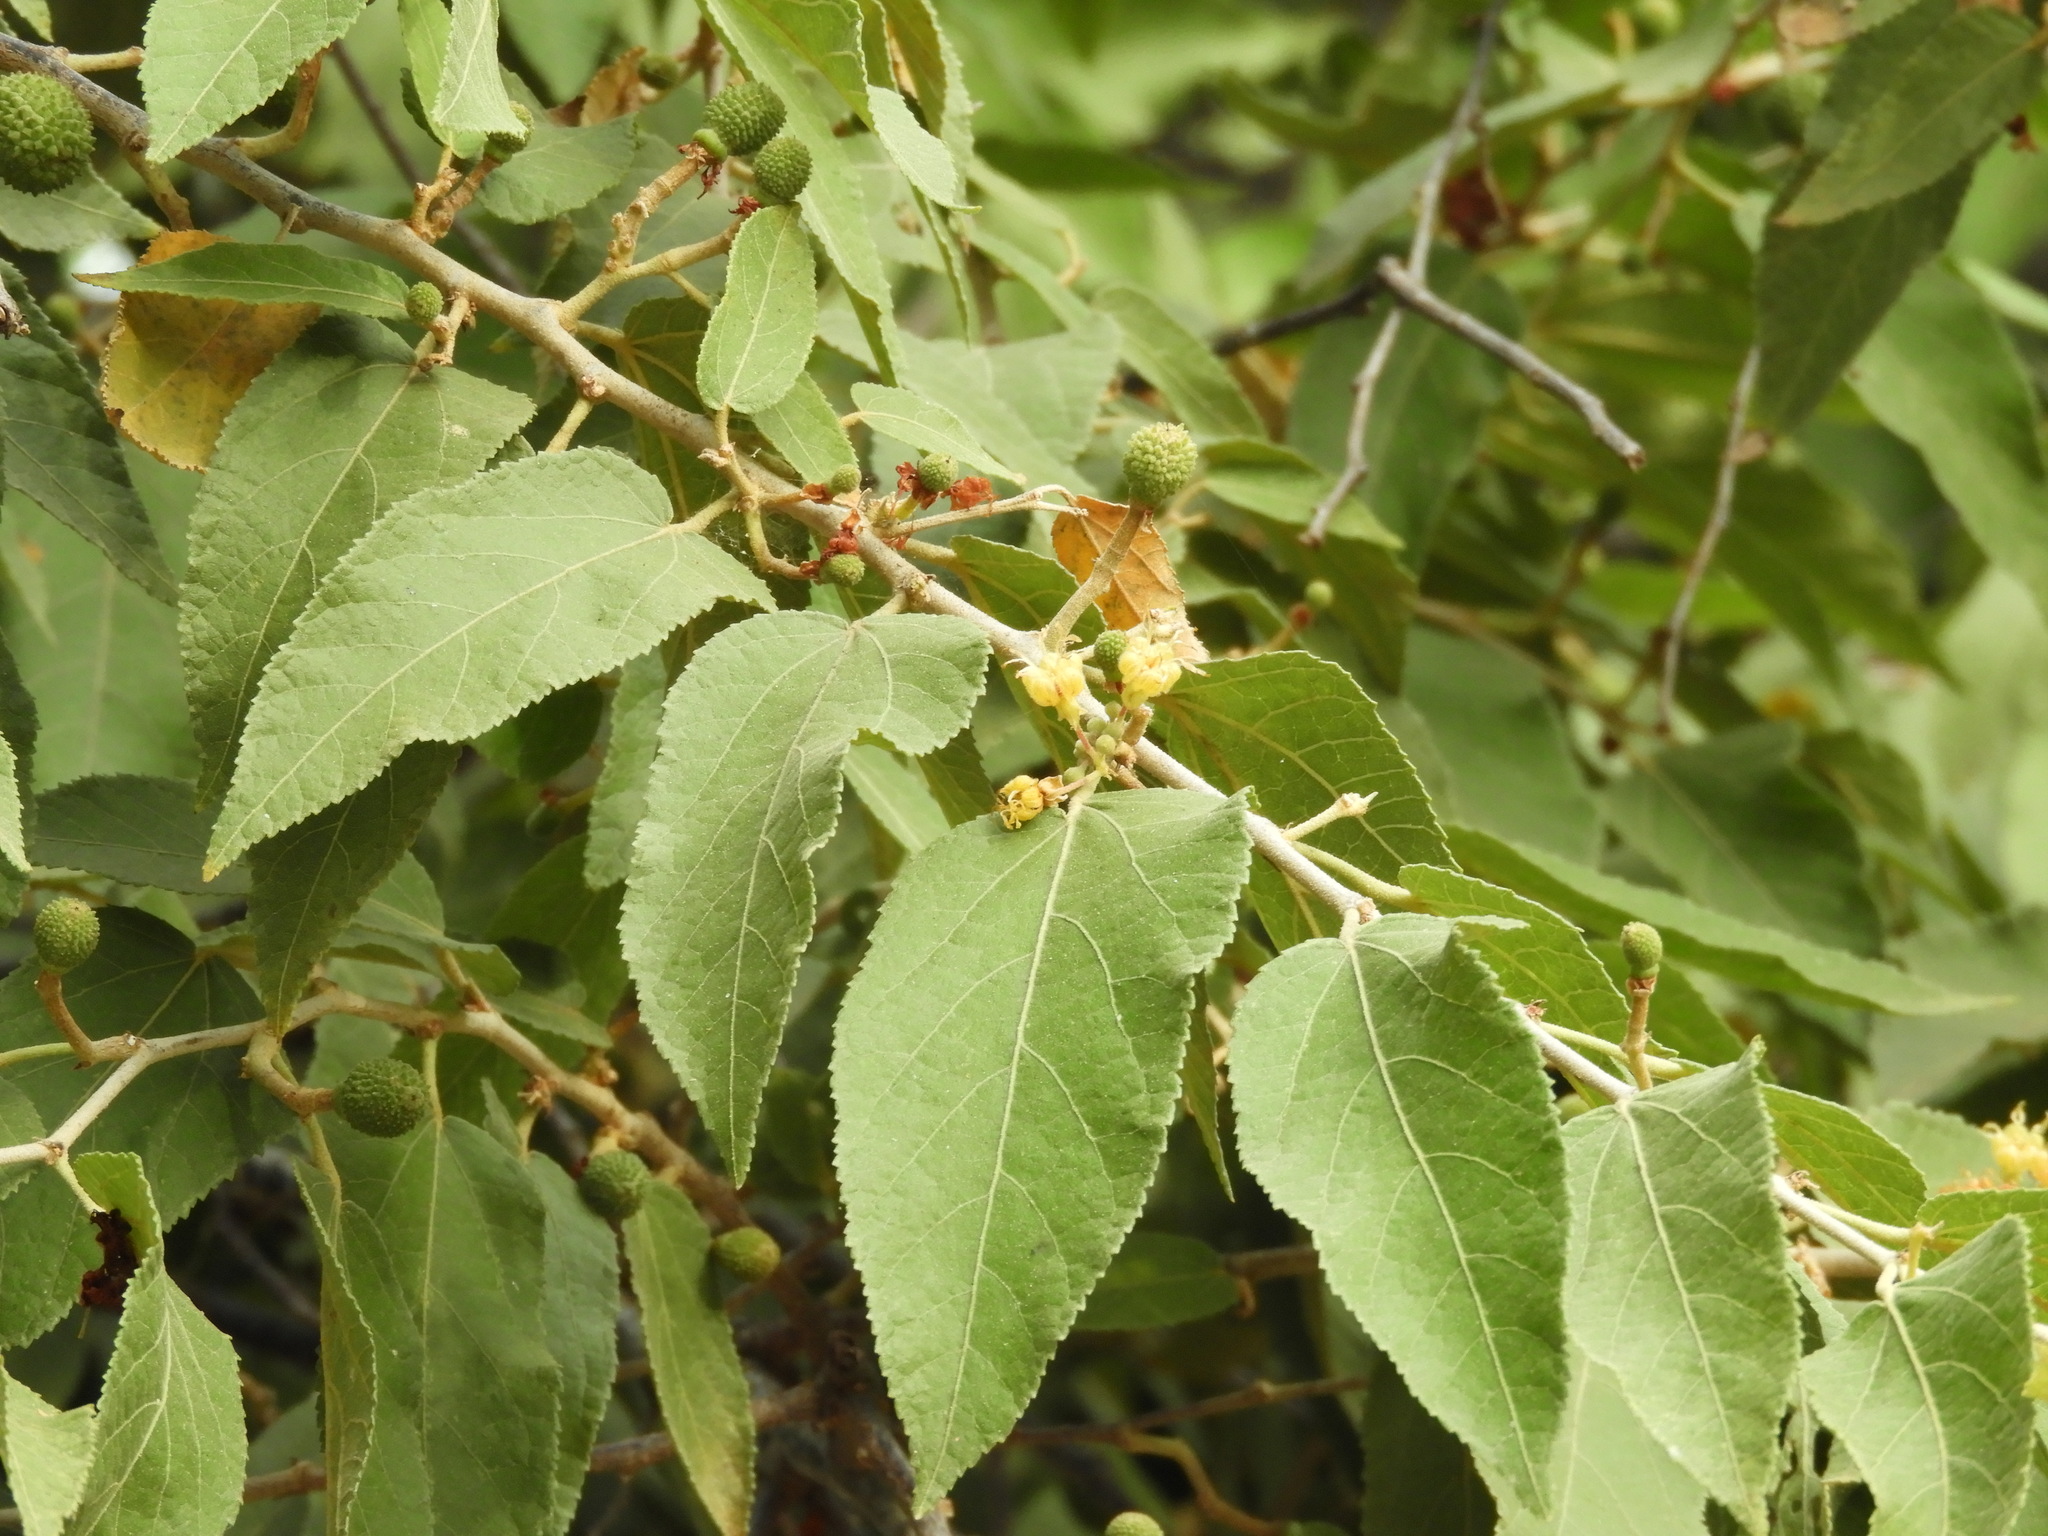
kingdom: Plantae
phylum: Tracheophyta
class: Magnoliopsida
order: Malvales
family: Malvaceae
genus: Guazuma
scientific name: Guazuma ulmifolia
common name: Bastard-cedar
